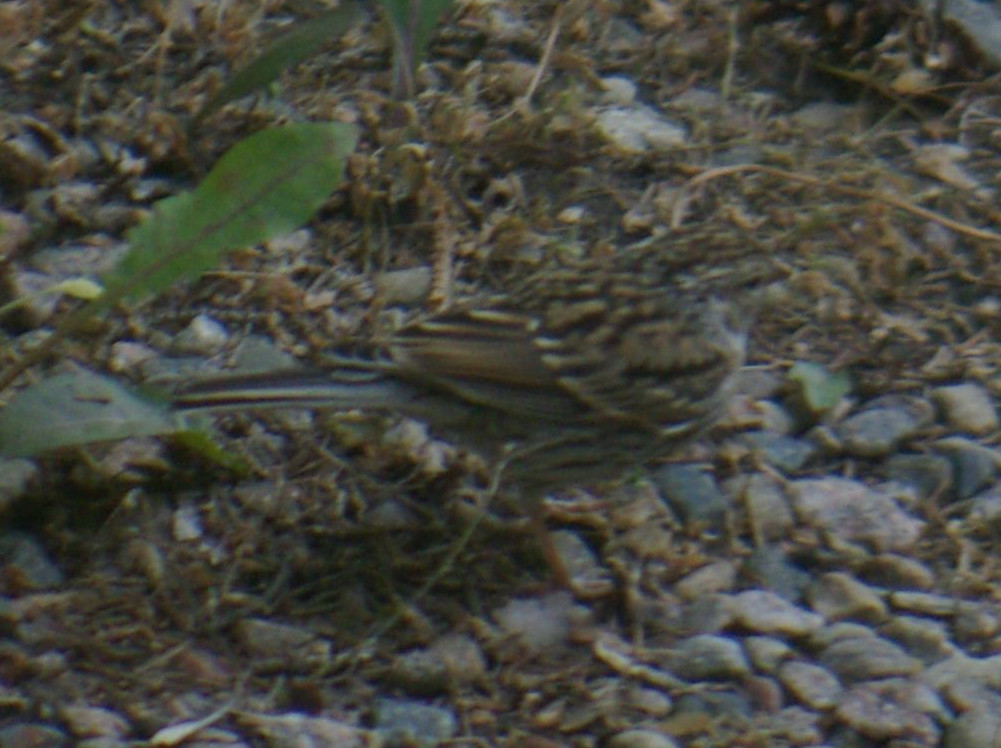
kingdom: Animalia
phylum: Chordata
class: Aves
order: Passeriformes
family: Passerellidae
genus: Spizella
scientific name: Spizella passerina
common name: Chipping sparrow
